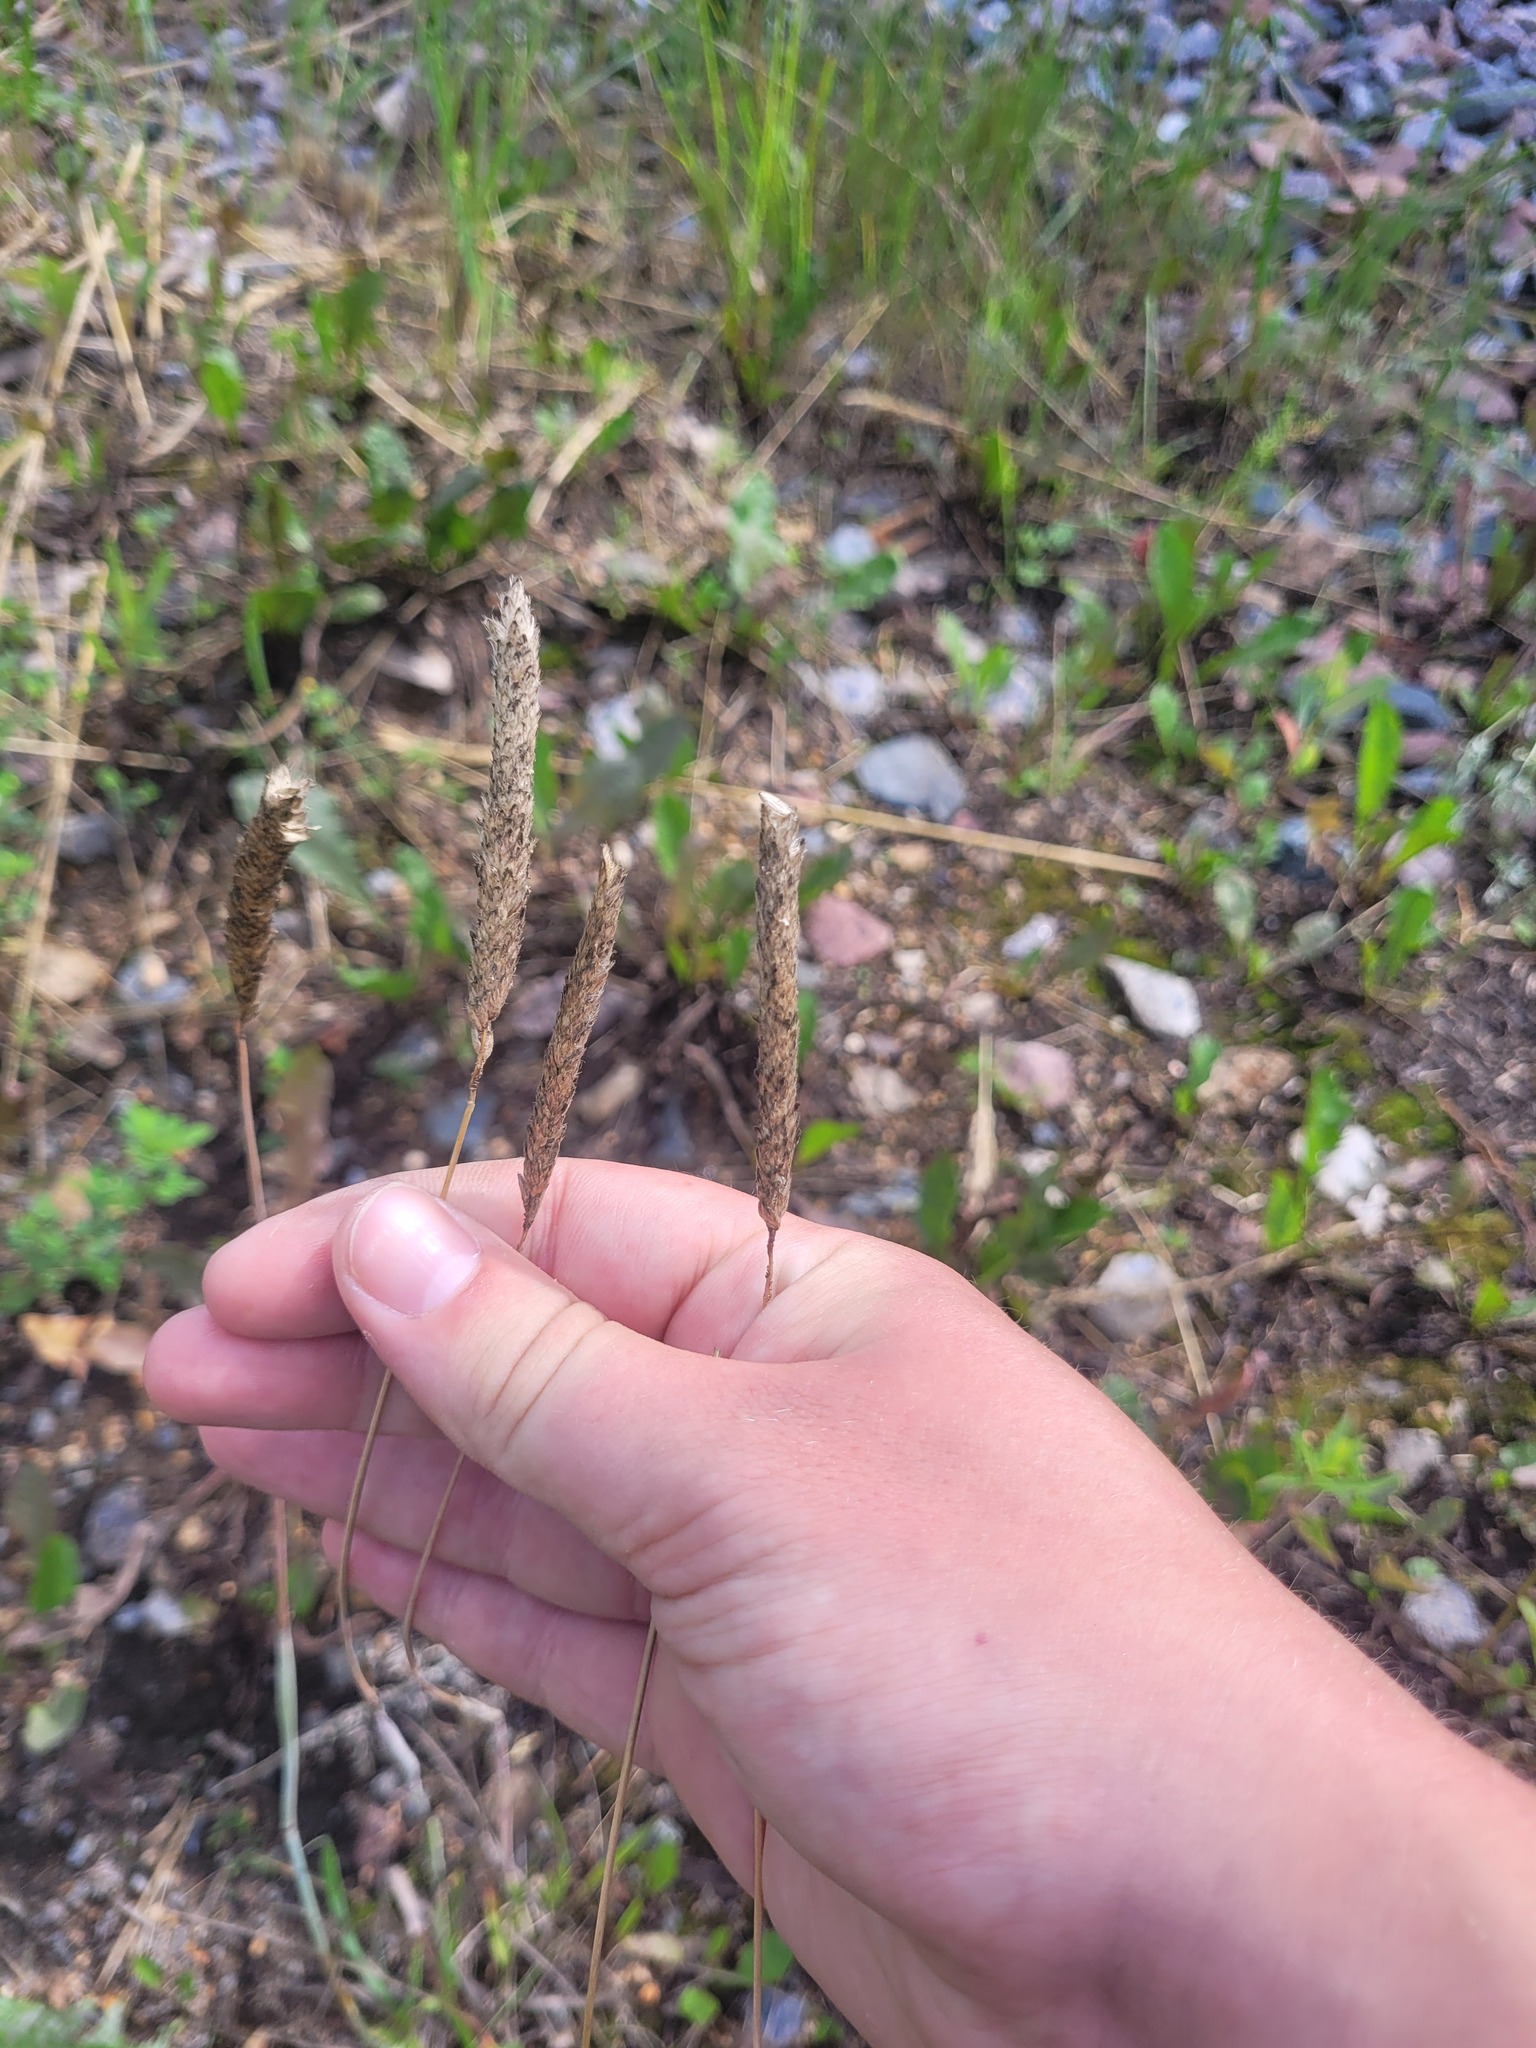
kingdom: Plantae
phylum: Tracheophyta
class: Liliopsida
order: Poales
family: Poaceae
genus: Alopecurus
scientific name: Alopecurus aequalis
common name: Orange foxtail
